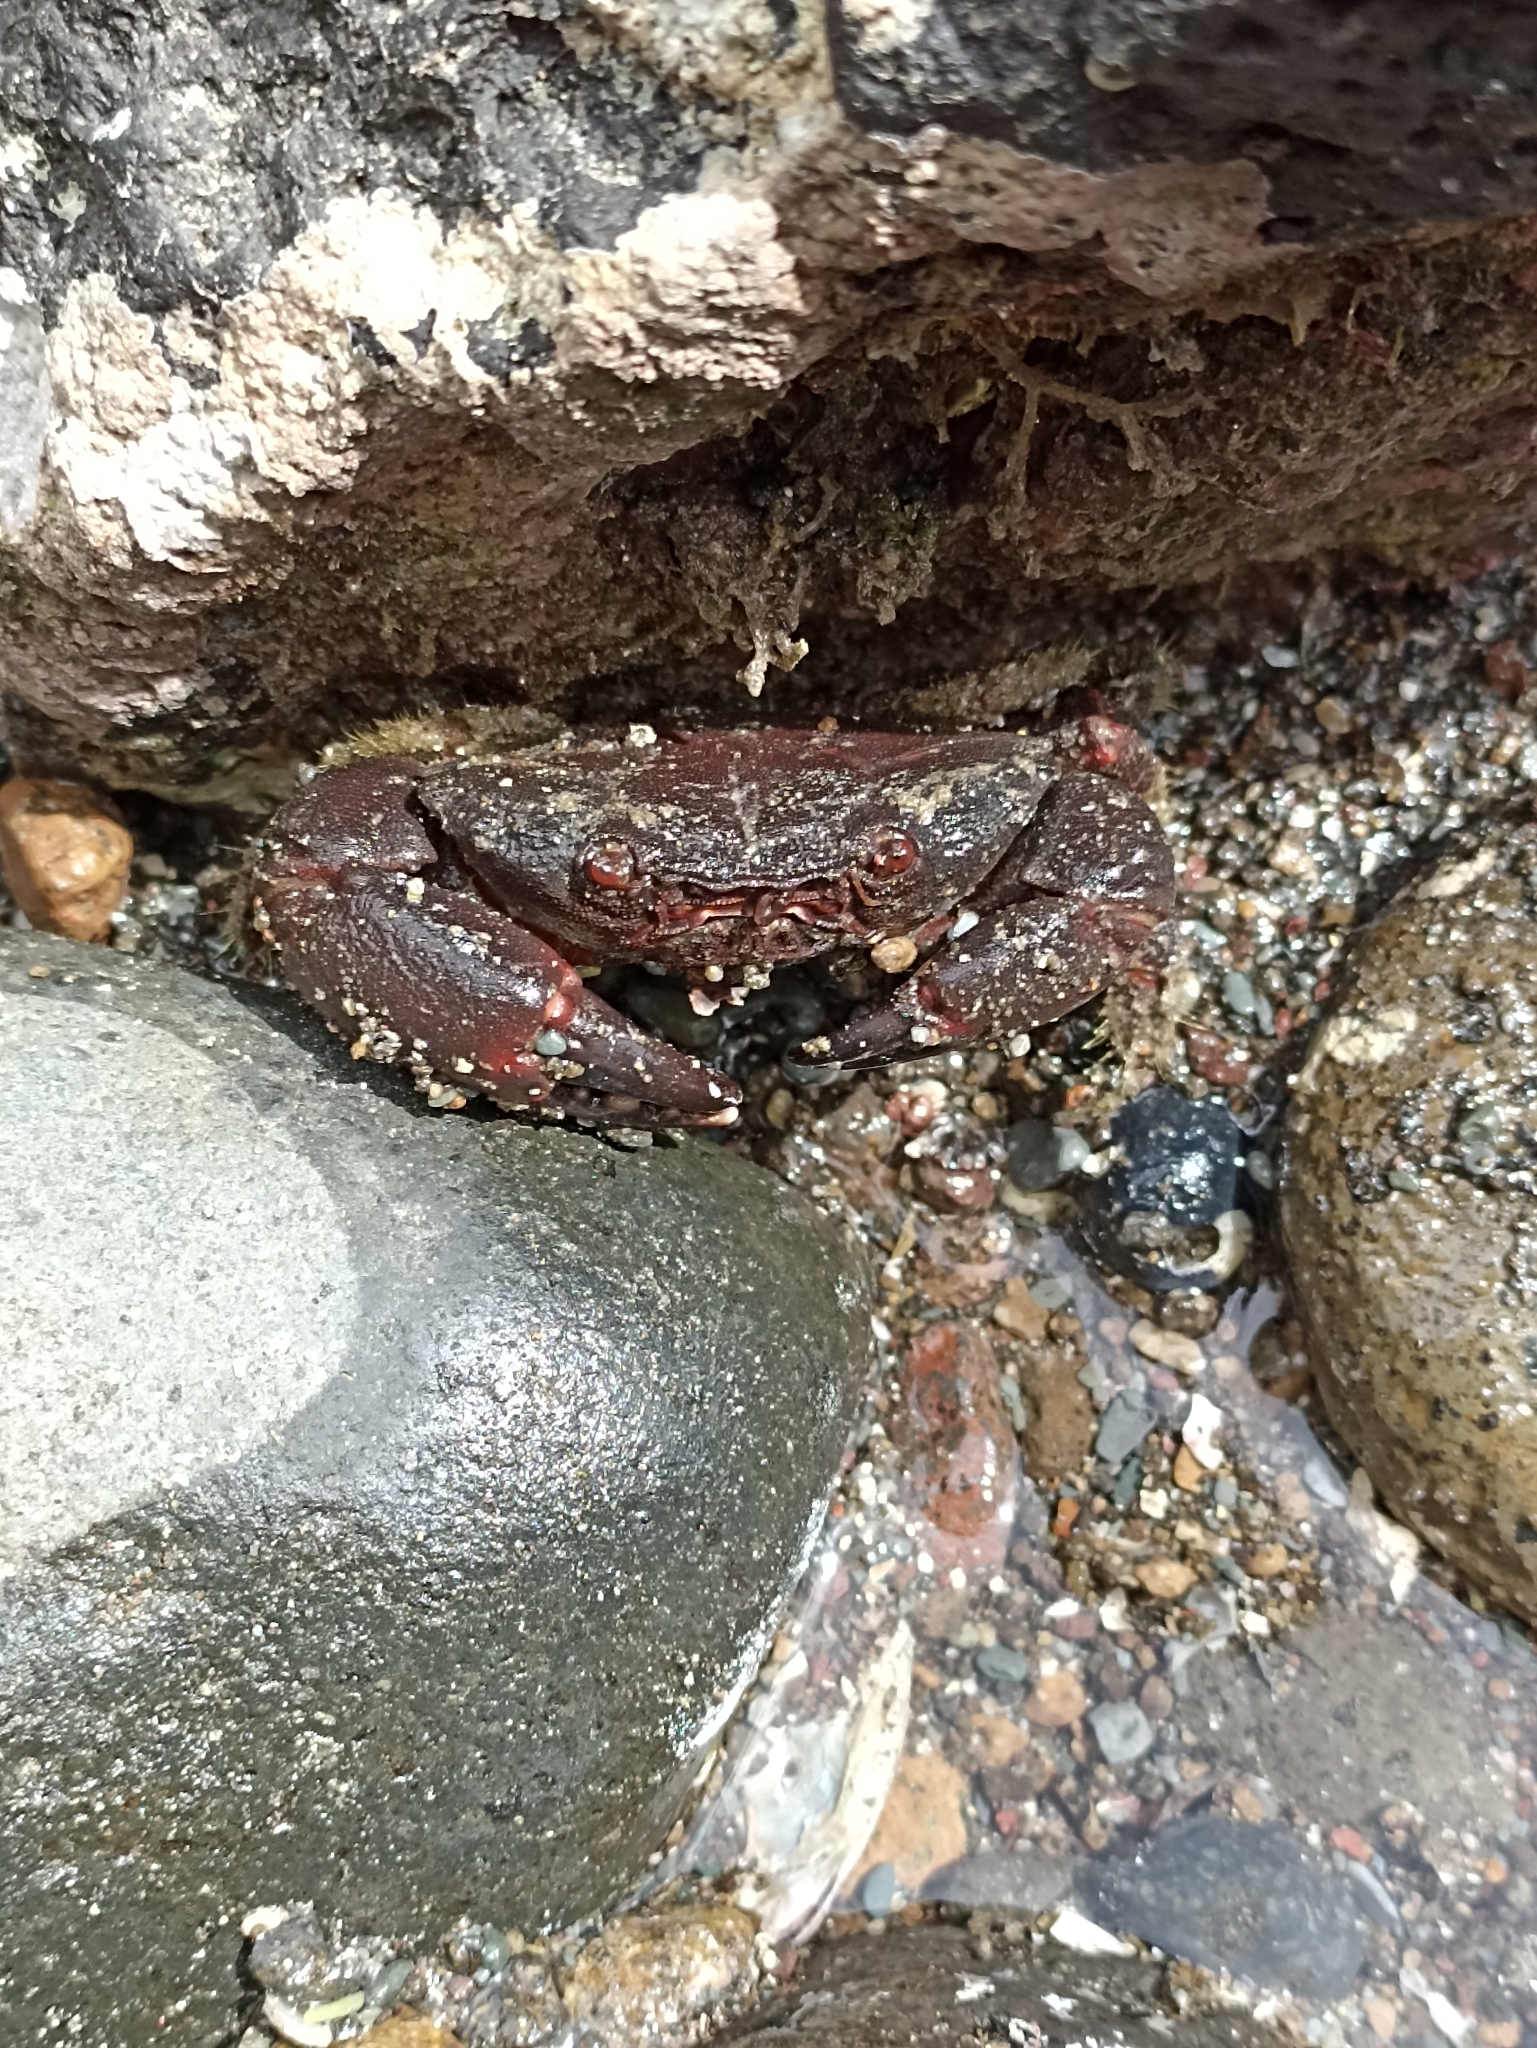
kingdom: Animalia
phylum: Arthropoda
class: Malacostraca
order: Decapoda
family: Oziidae
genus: Ozius
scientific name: Ozius deplanatus
